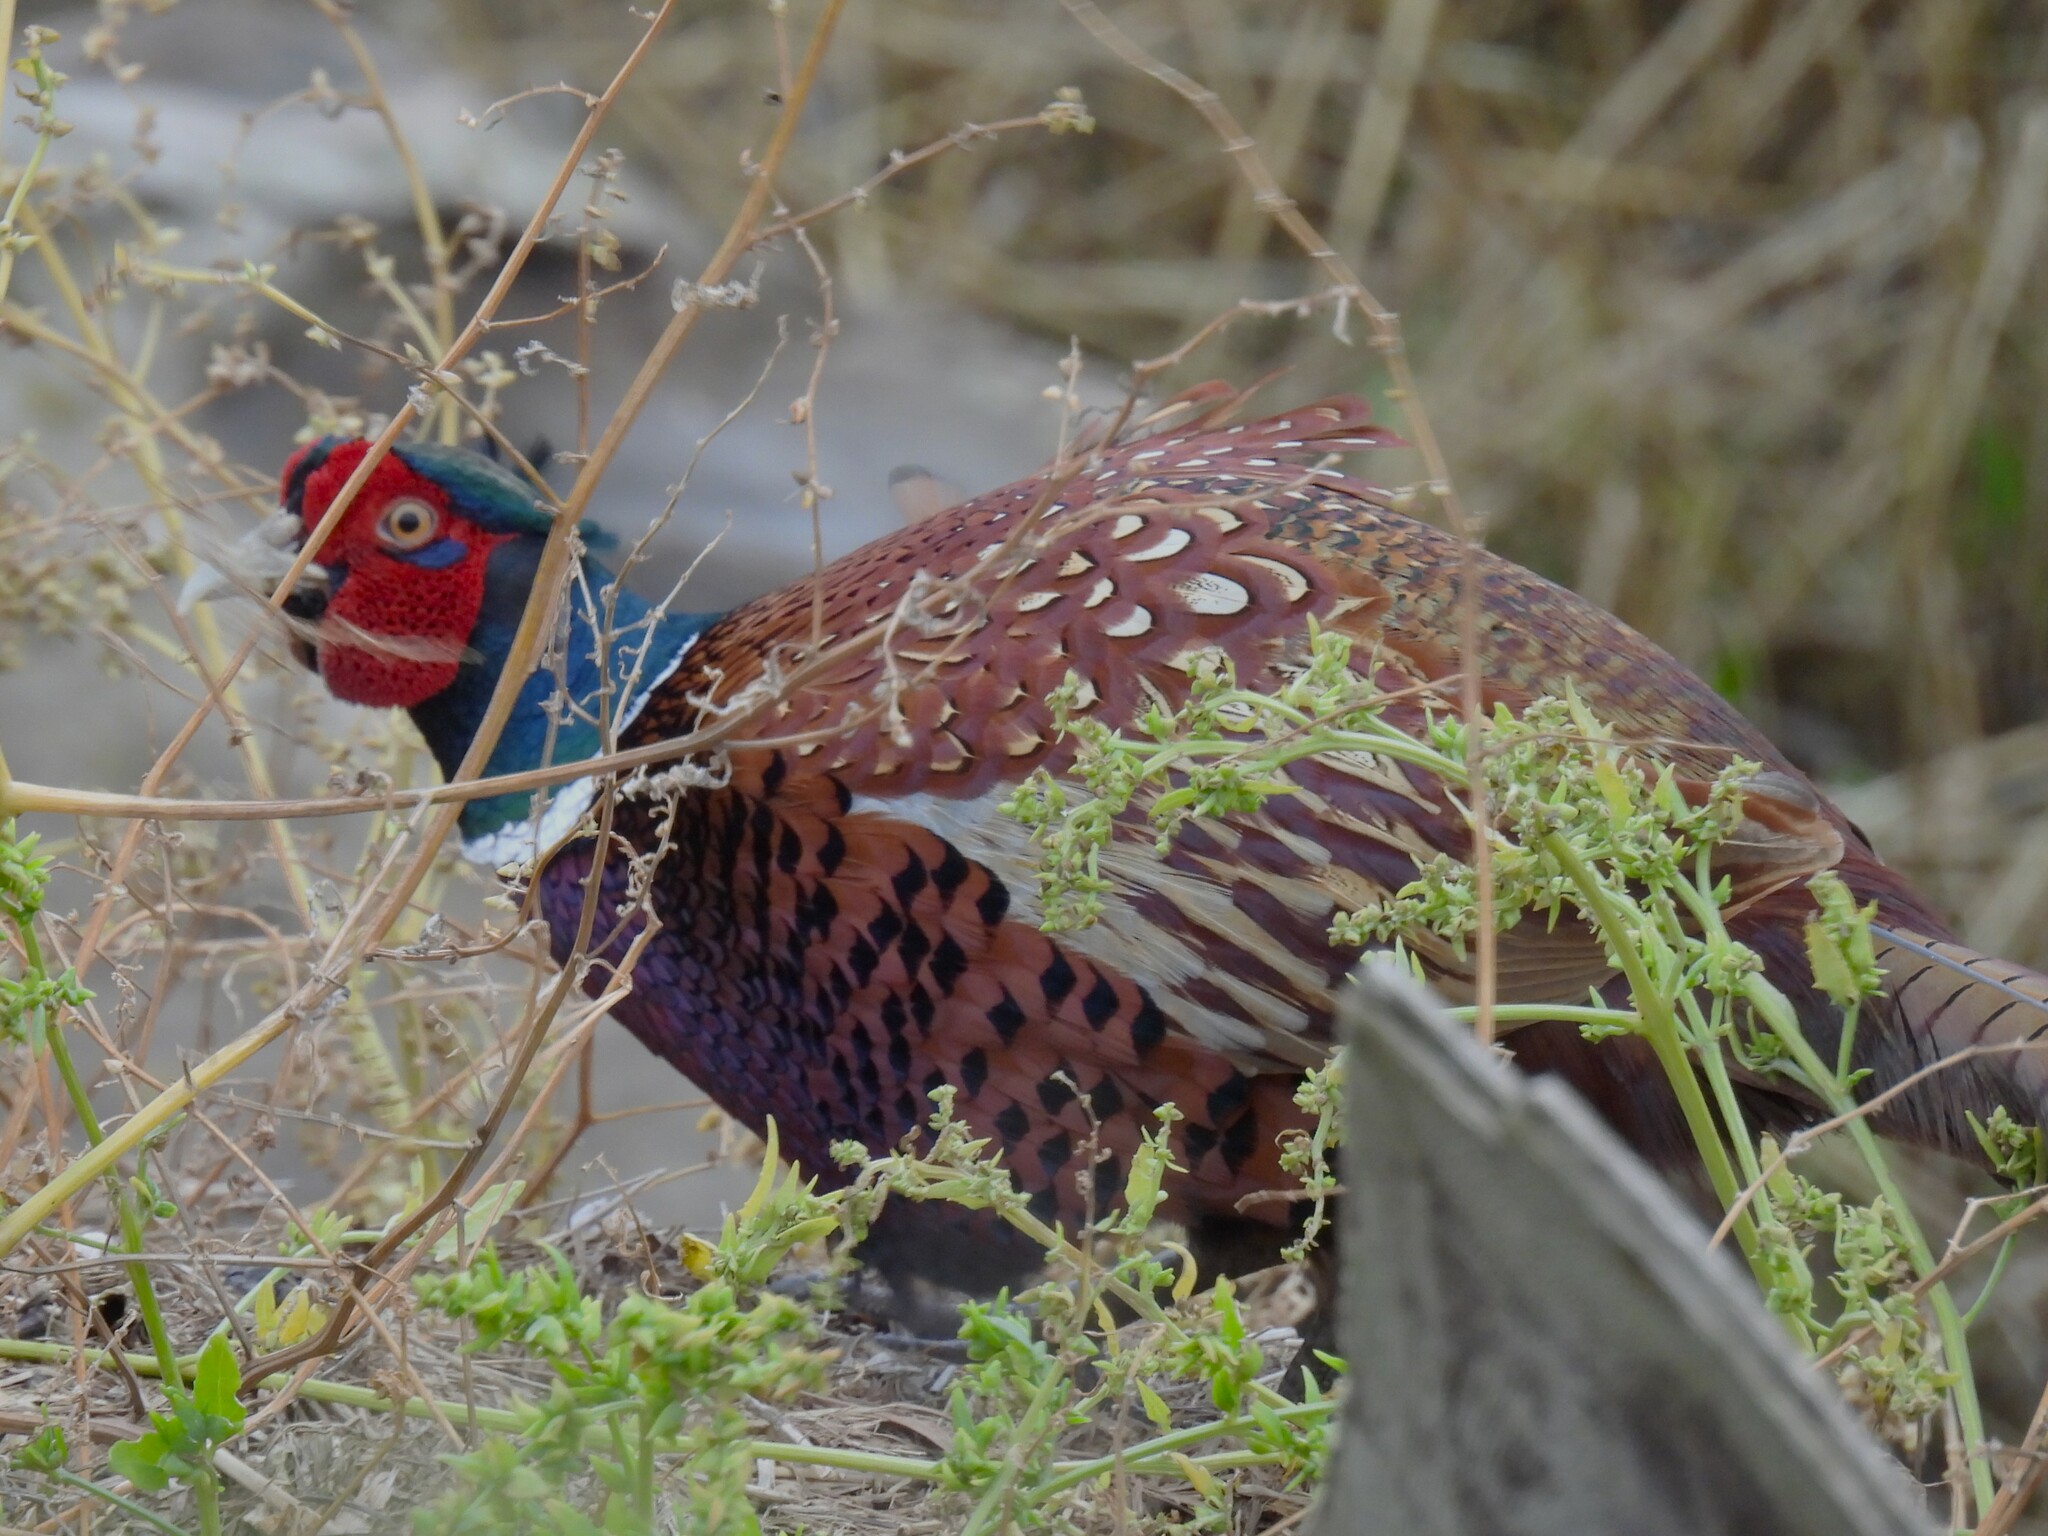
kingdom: Animalia
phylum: Chordata
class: Aves
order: Galliformes
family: Phasianidae
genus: Phasianus
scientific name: Phasianus colchicus
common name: Common pheasant
